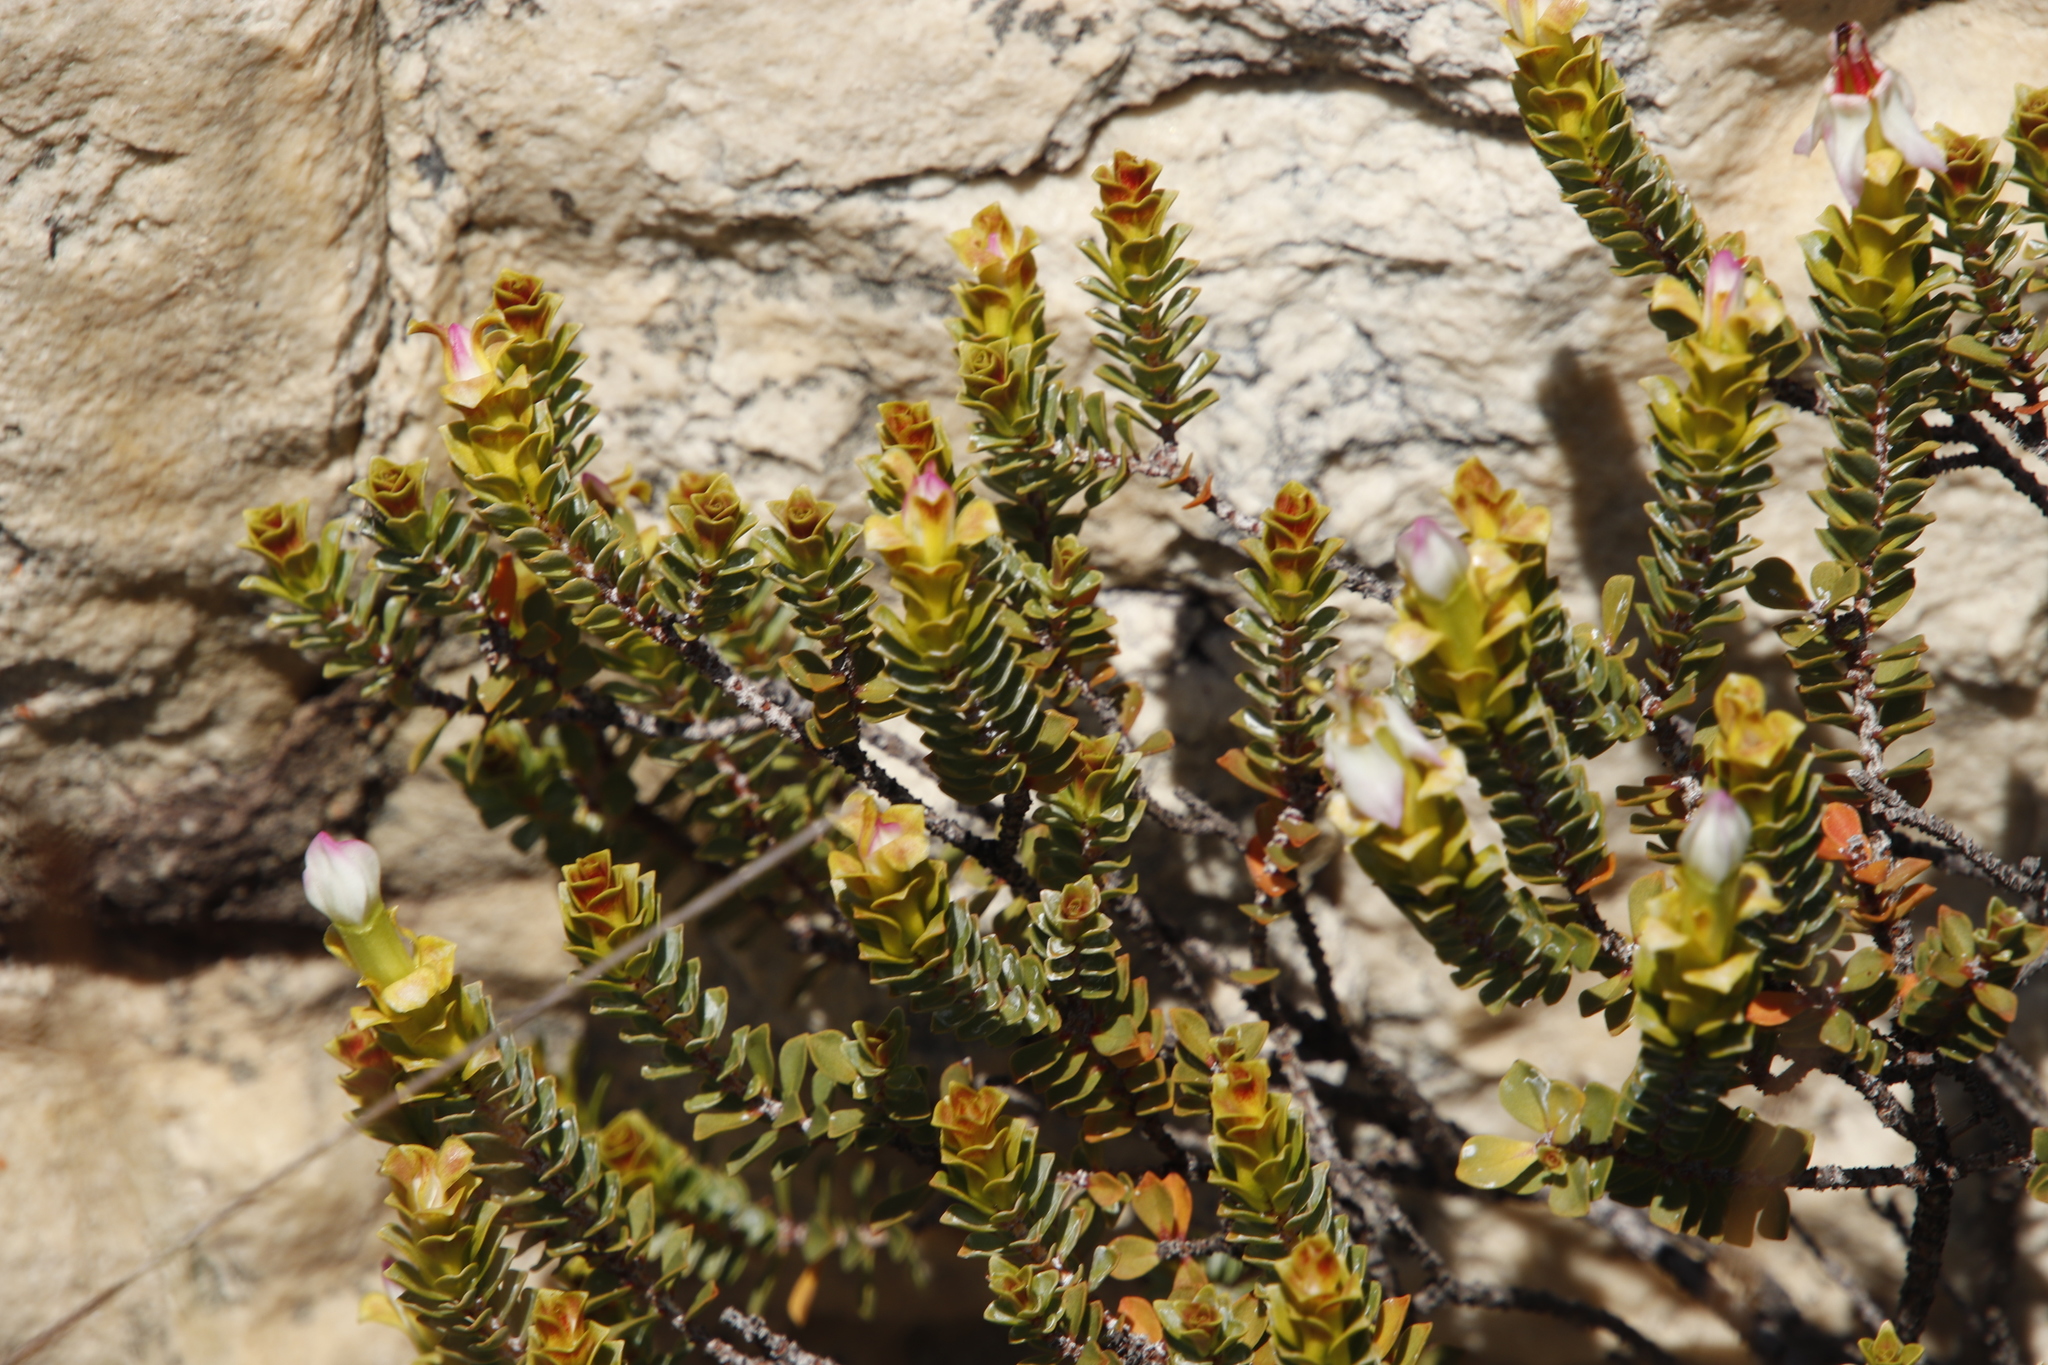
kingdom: Plantae
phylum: Tracheophyta
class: Magnoliopsida
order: Myrtales
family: Penaeaceae
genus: Saltera
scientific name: Saltera sarcocolla
